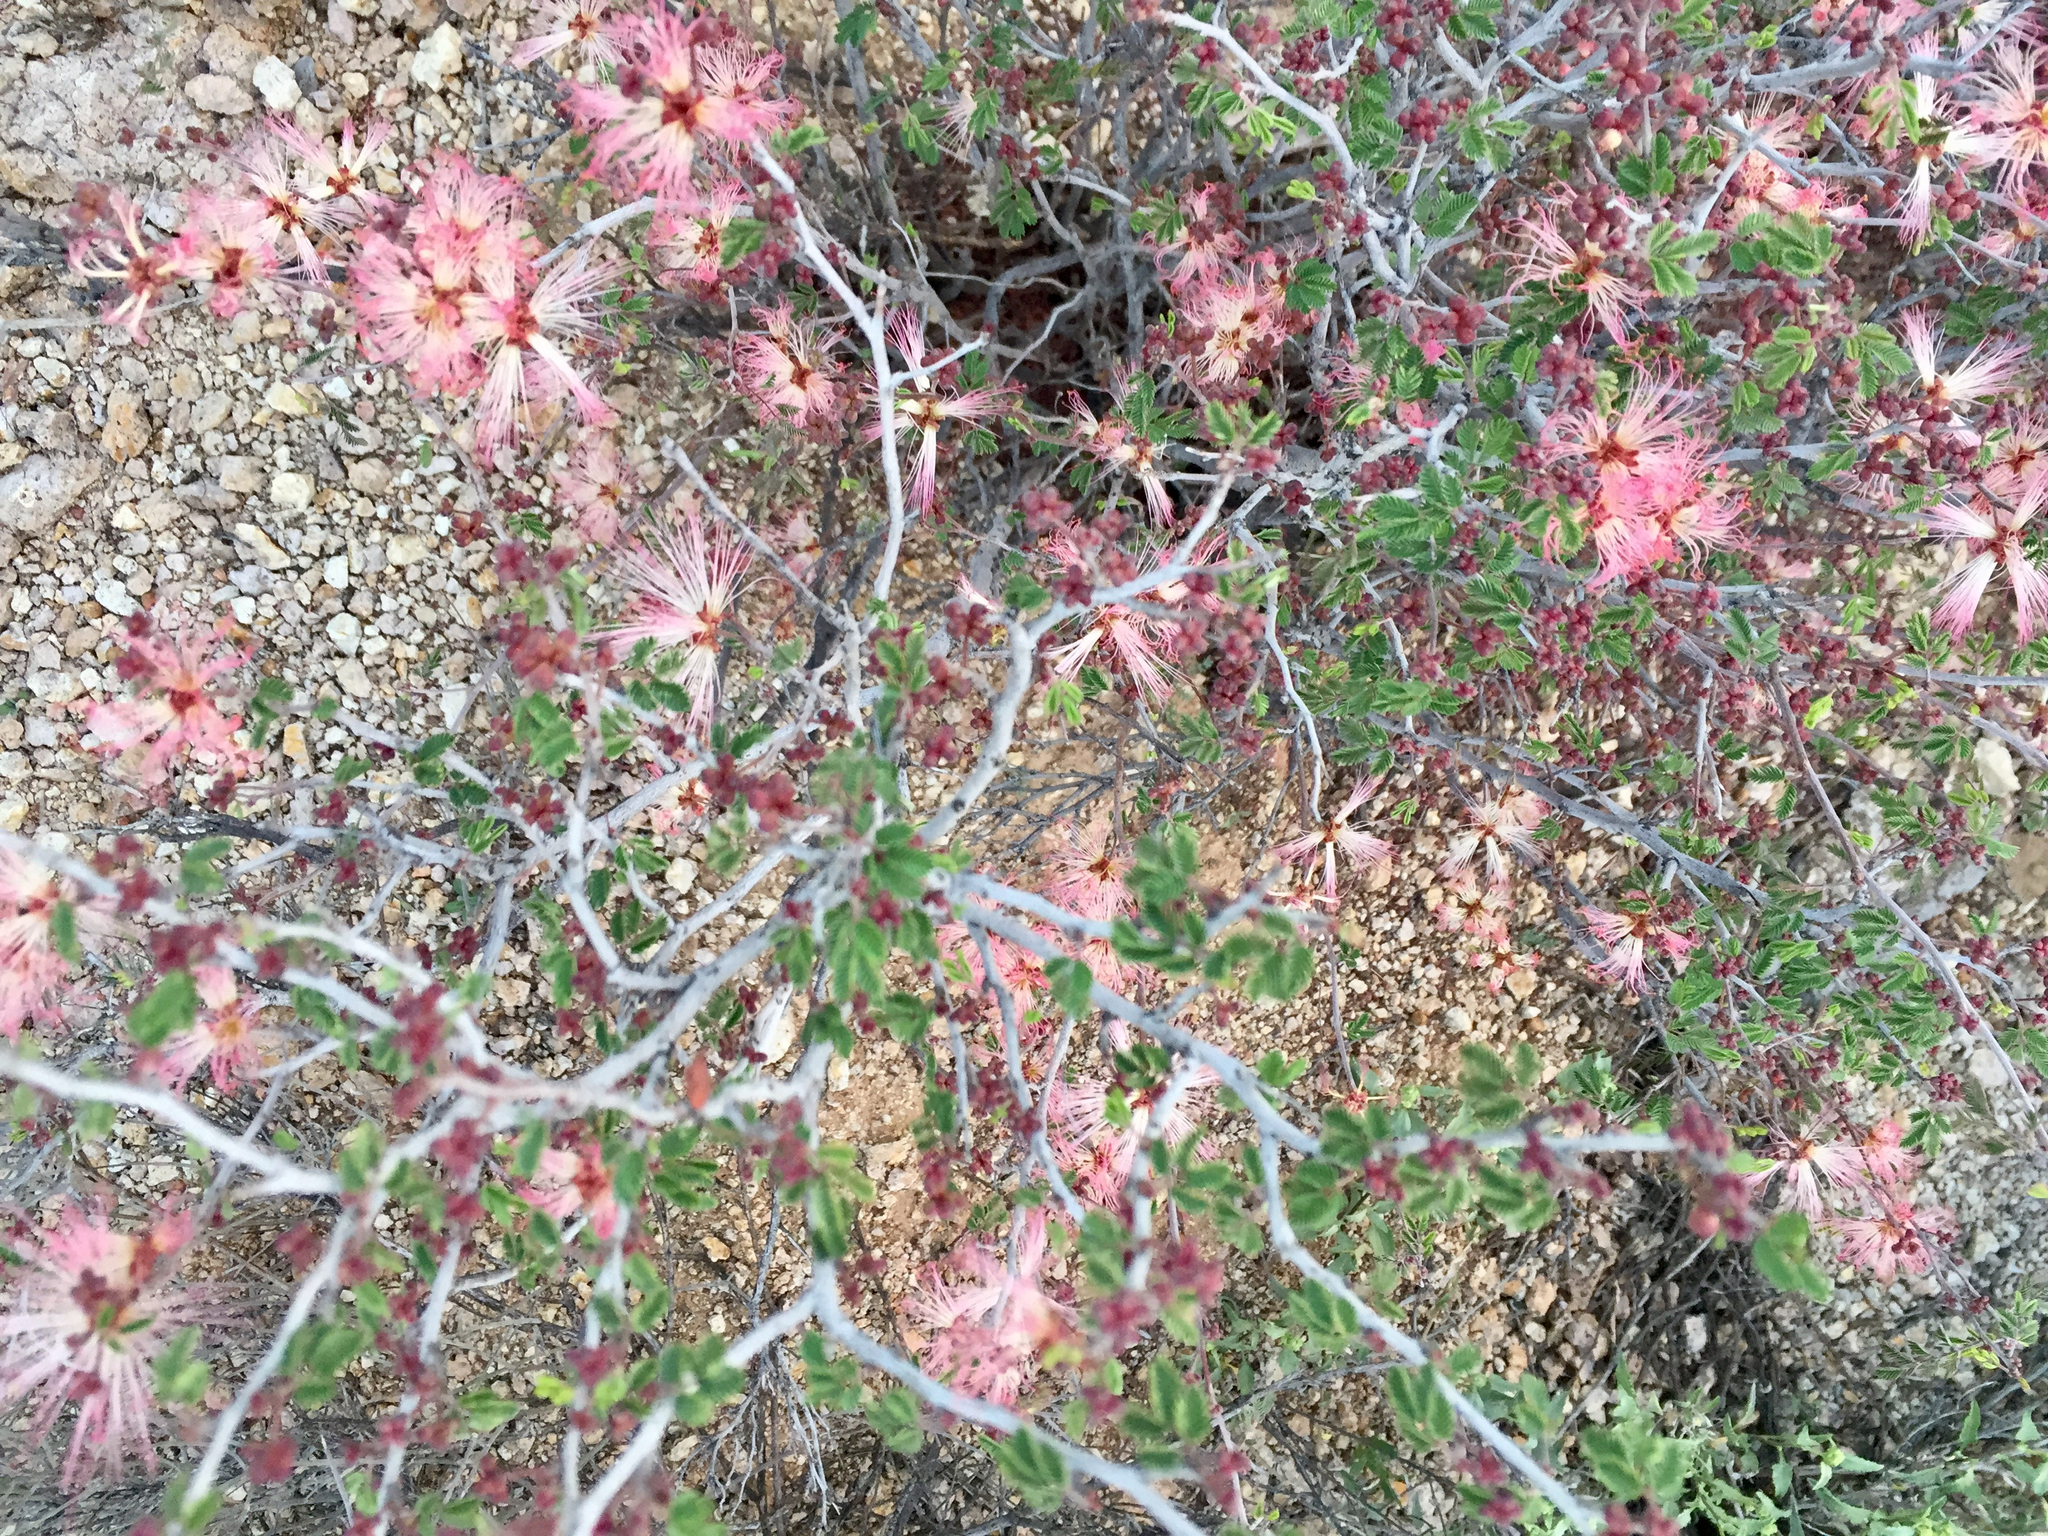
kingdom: Plantae
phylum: Tracheophyta
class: Magnoliopsida
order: Fabales
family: Fabaceae
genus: Calliandra
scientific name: Calliandra eriophylla
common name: Fairy-duster
